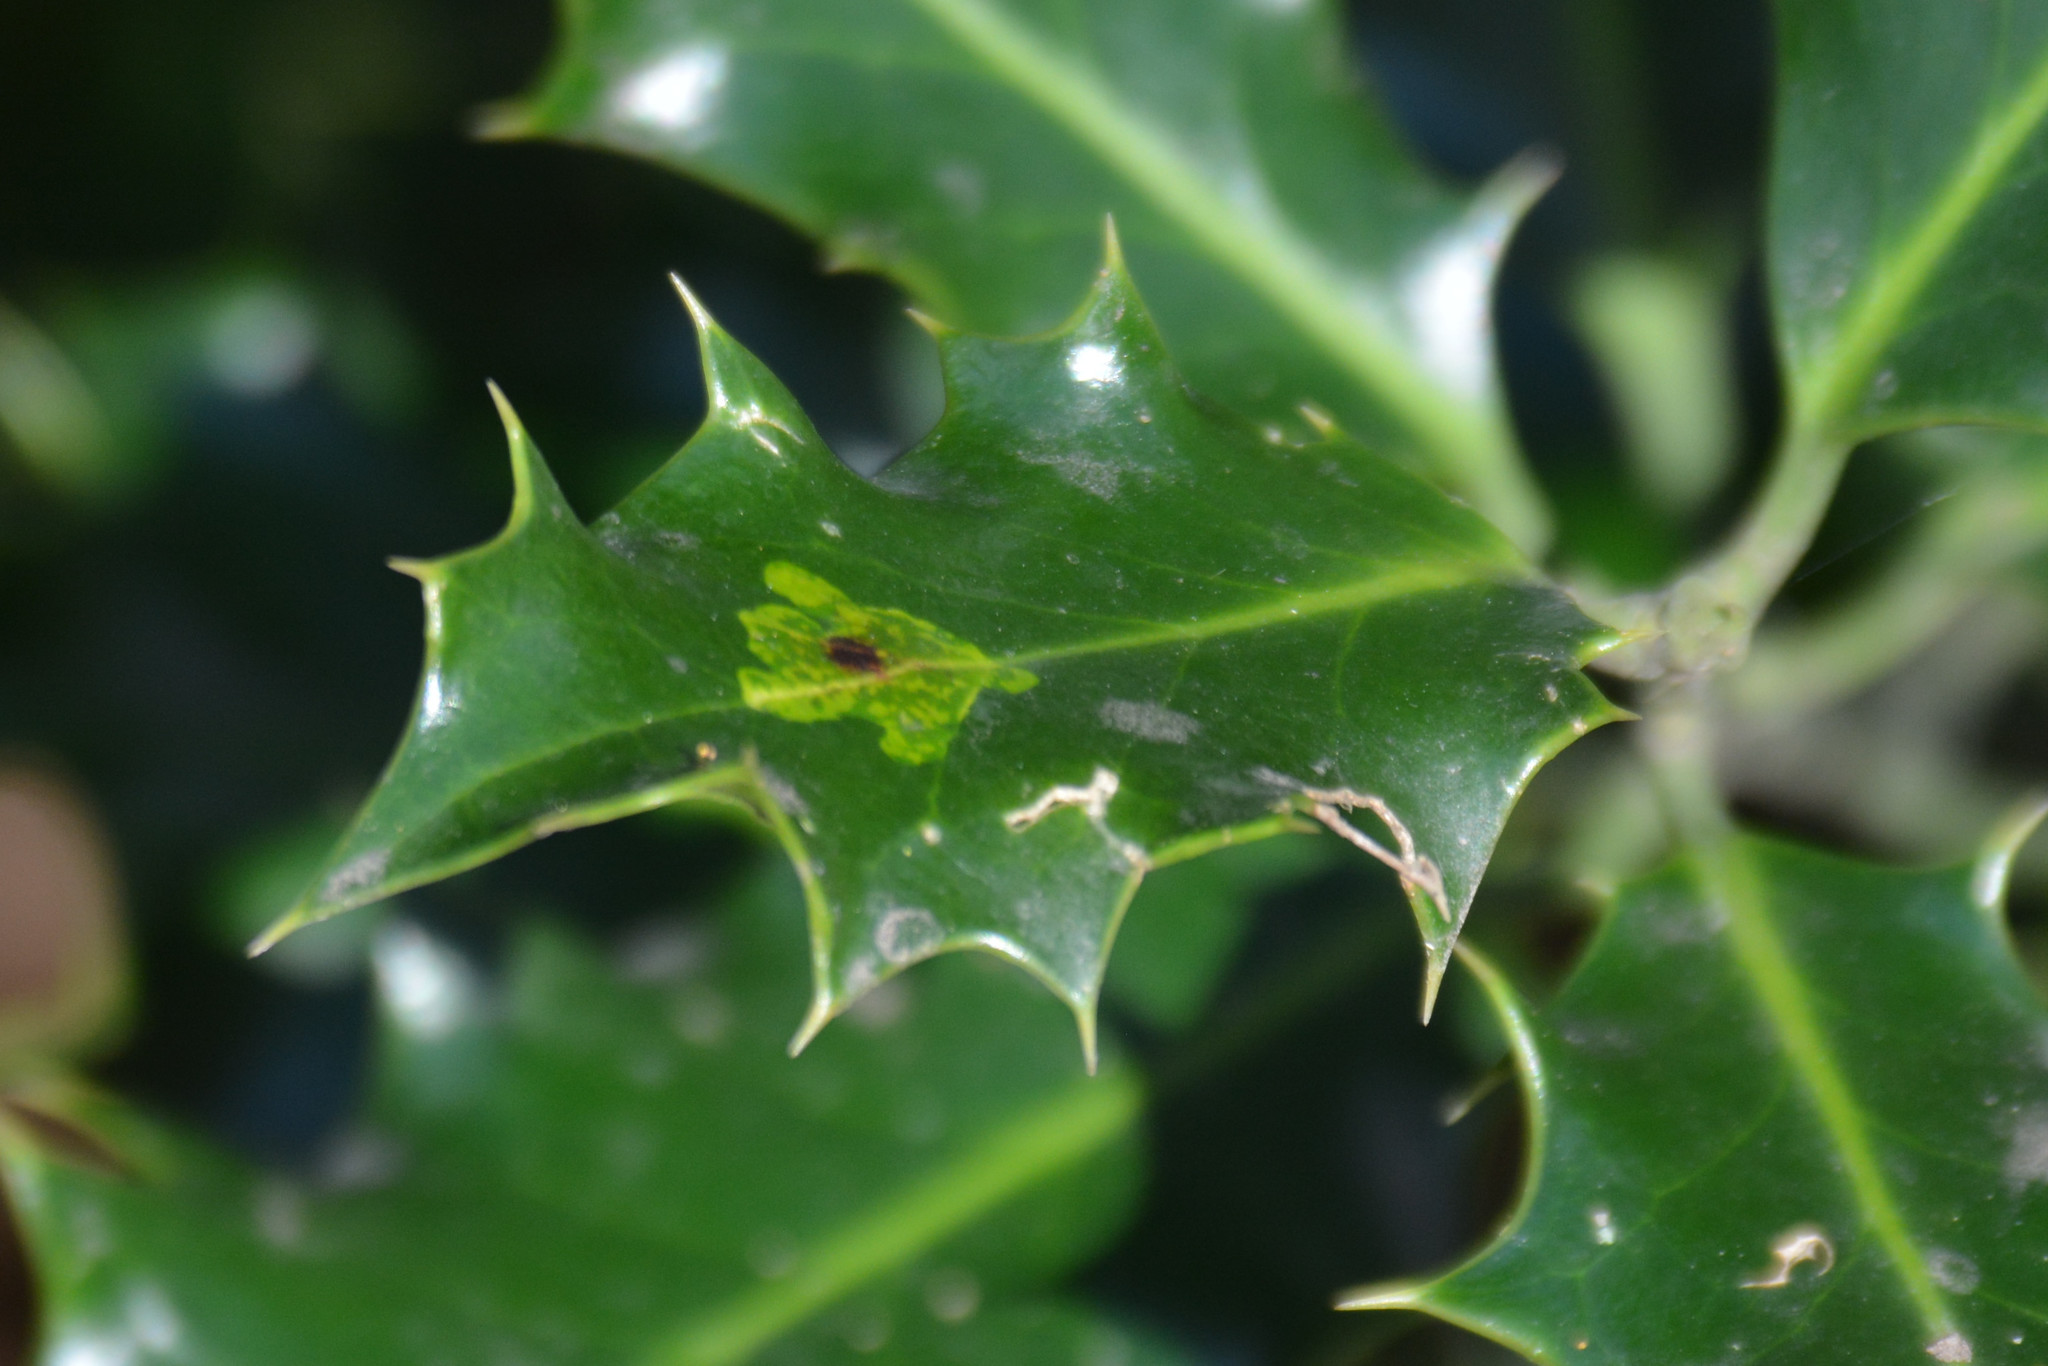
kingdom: Animalia
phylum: Arthropoda
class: Insecta
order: Diptera
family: Agromyzidae
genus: Phytomyza
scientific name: Phytomyza ilicis
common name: Holly leafminer
